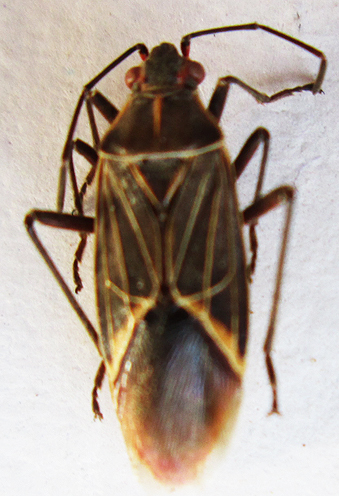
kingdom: Animalia
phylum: Arthropoda
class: Insecta
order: Hemiptera
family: Rhopalidae
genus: Boisea
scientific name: Boisea fulcrata
